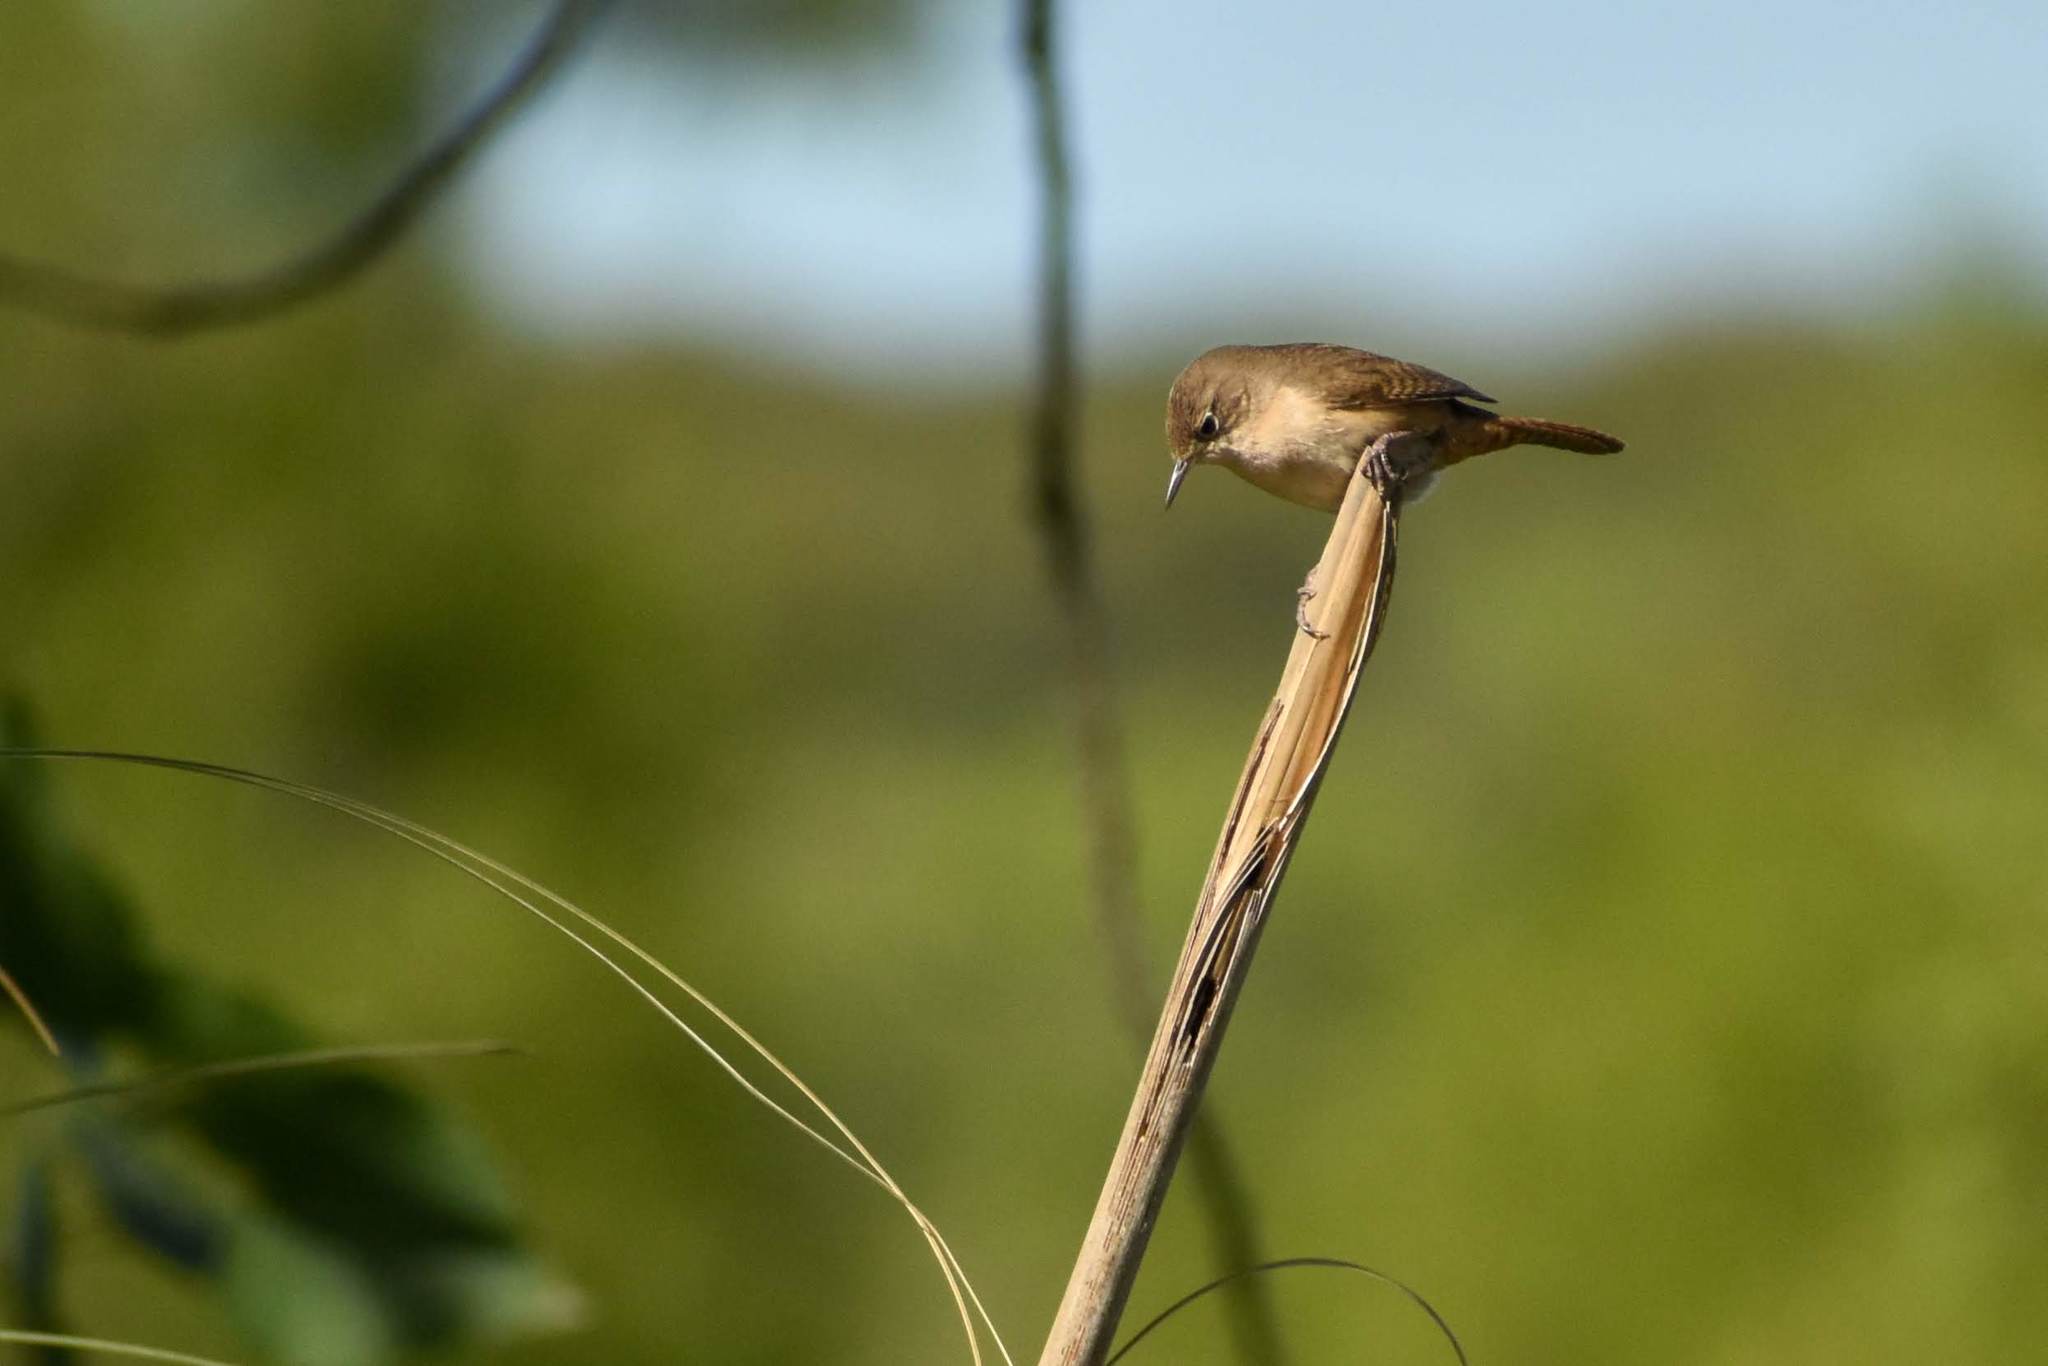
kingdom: Animalia
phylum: Chordata
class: Aves
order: Passeriformes
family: Troglodytidae
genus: Troglodytes
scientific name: Troglodytes aedon
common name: House wren
